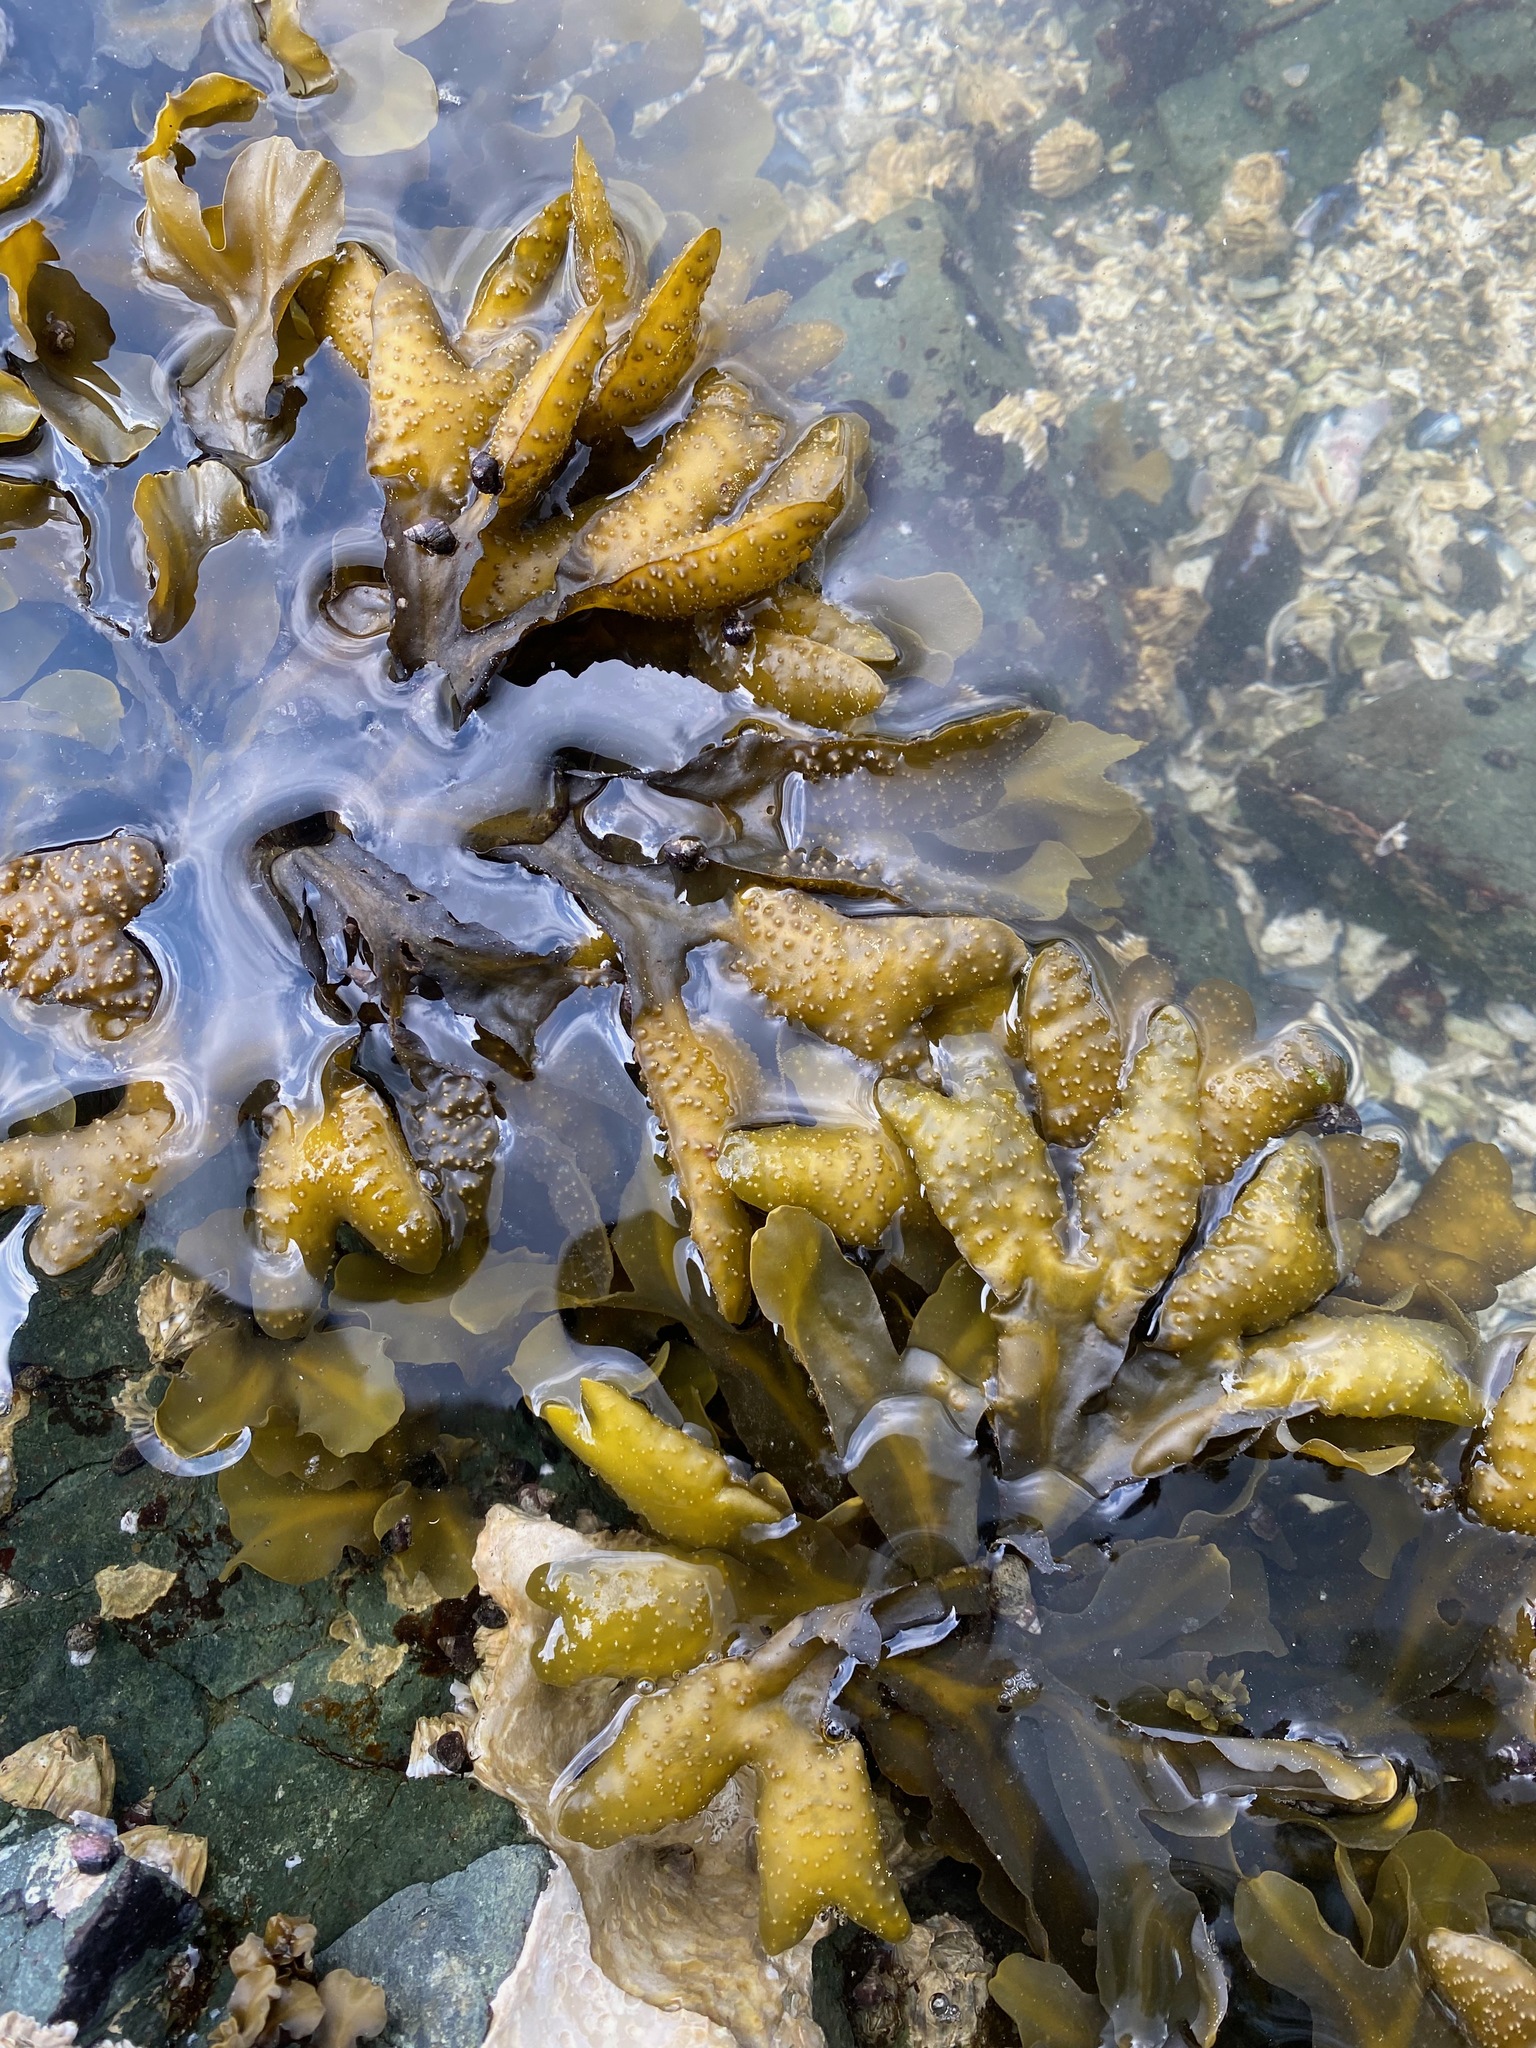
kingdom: Chromista
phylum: Ochrophyta
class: Phaeophyceae
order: Fucales
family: Fucaceae
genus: Fucus
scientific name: Fucus distichus
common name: Rockweed
